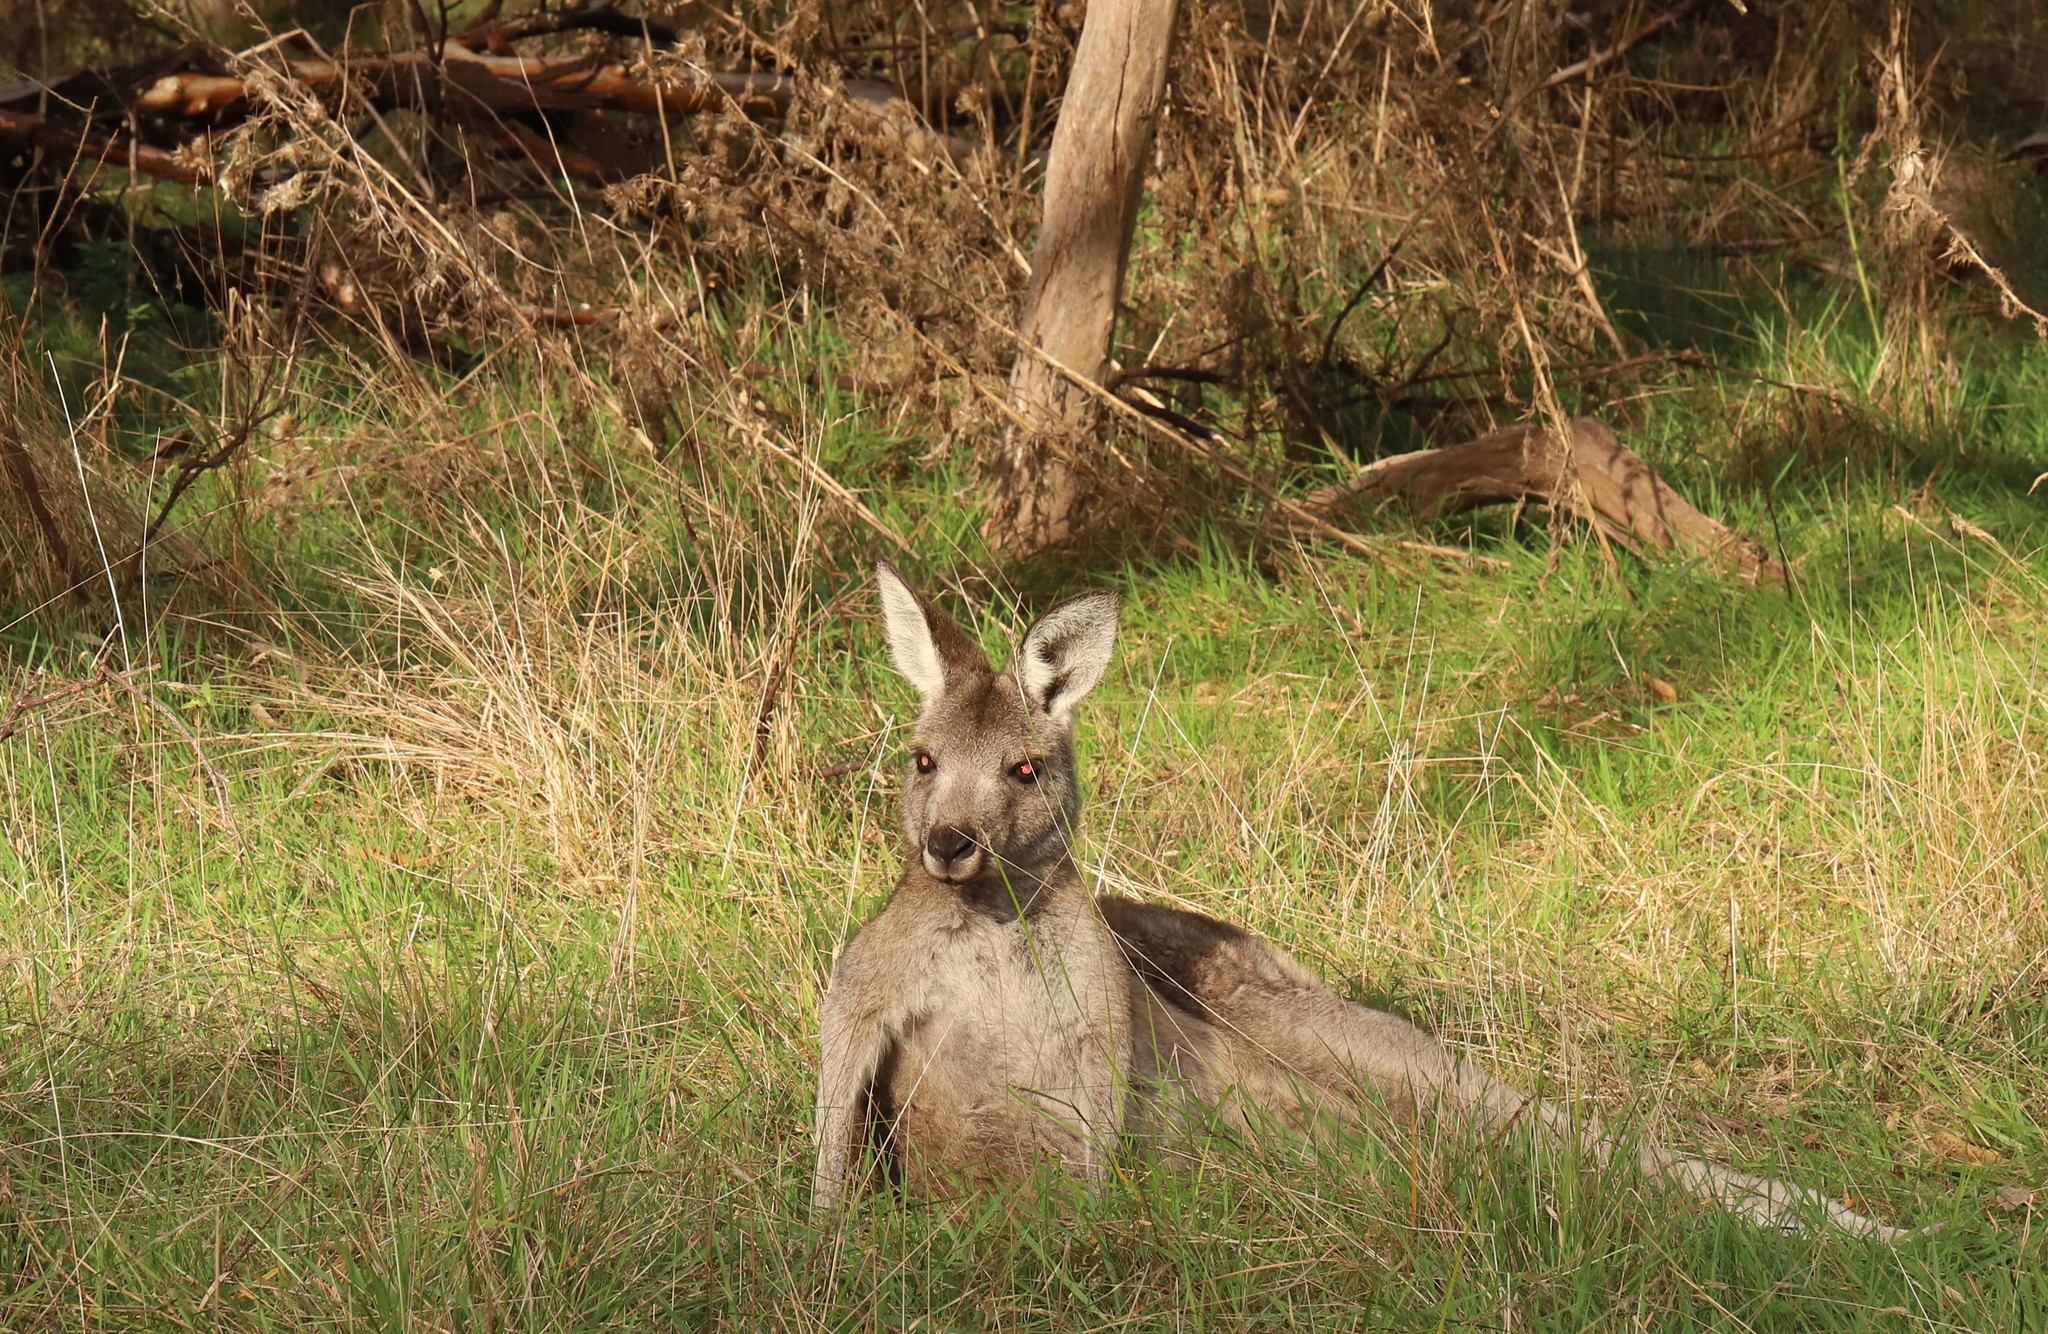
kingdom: Animalia
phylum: Chordata
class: Mammalia
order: Diprotodontia
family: Macropodidae
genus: Macropus
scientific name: Macropus giganteus
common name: Eastern grey kangaroo
